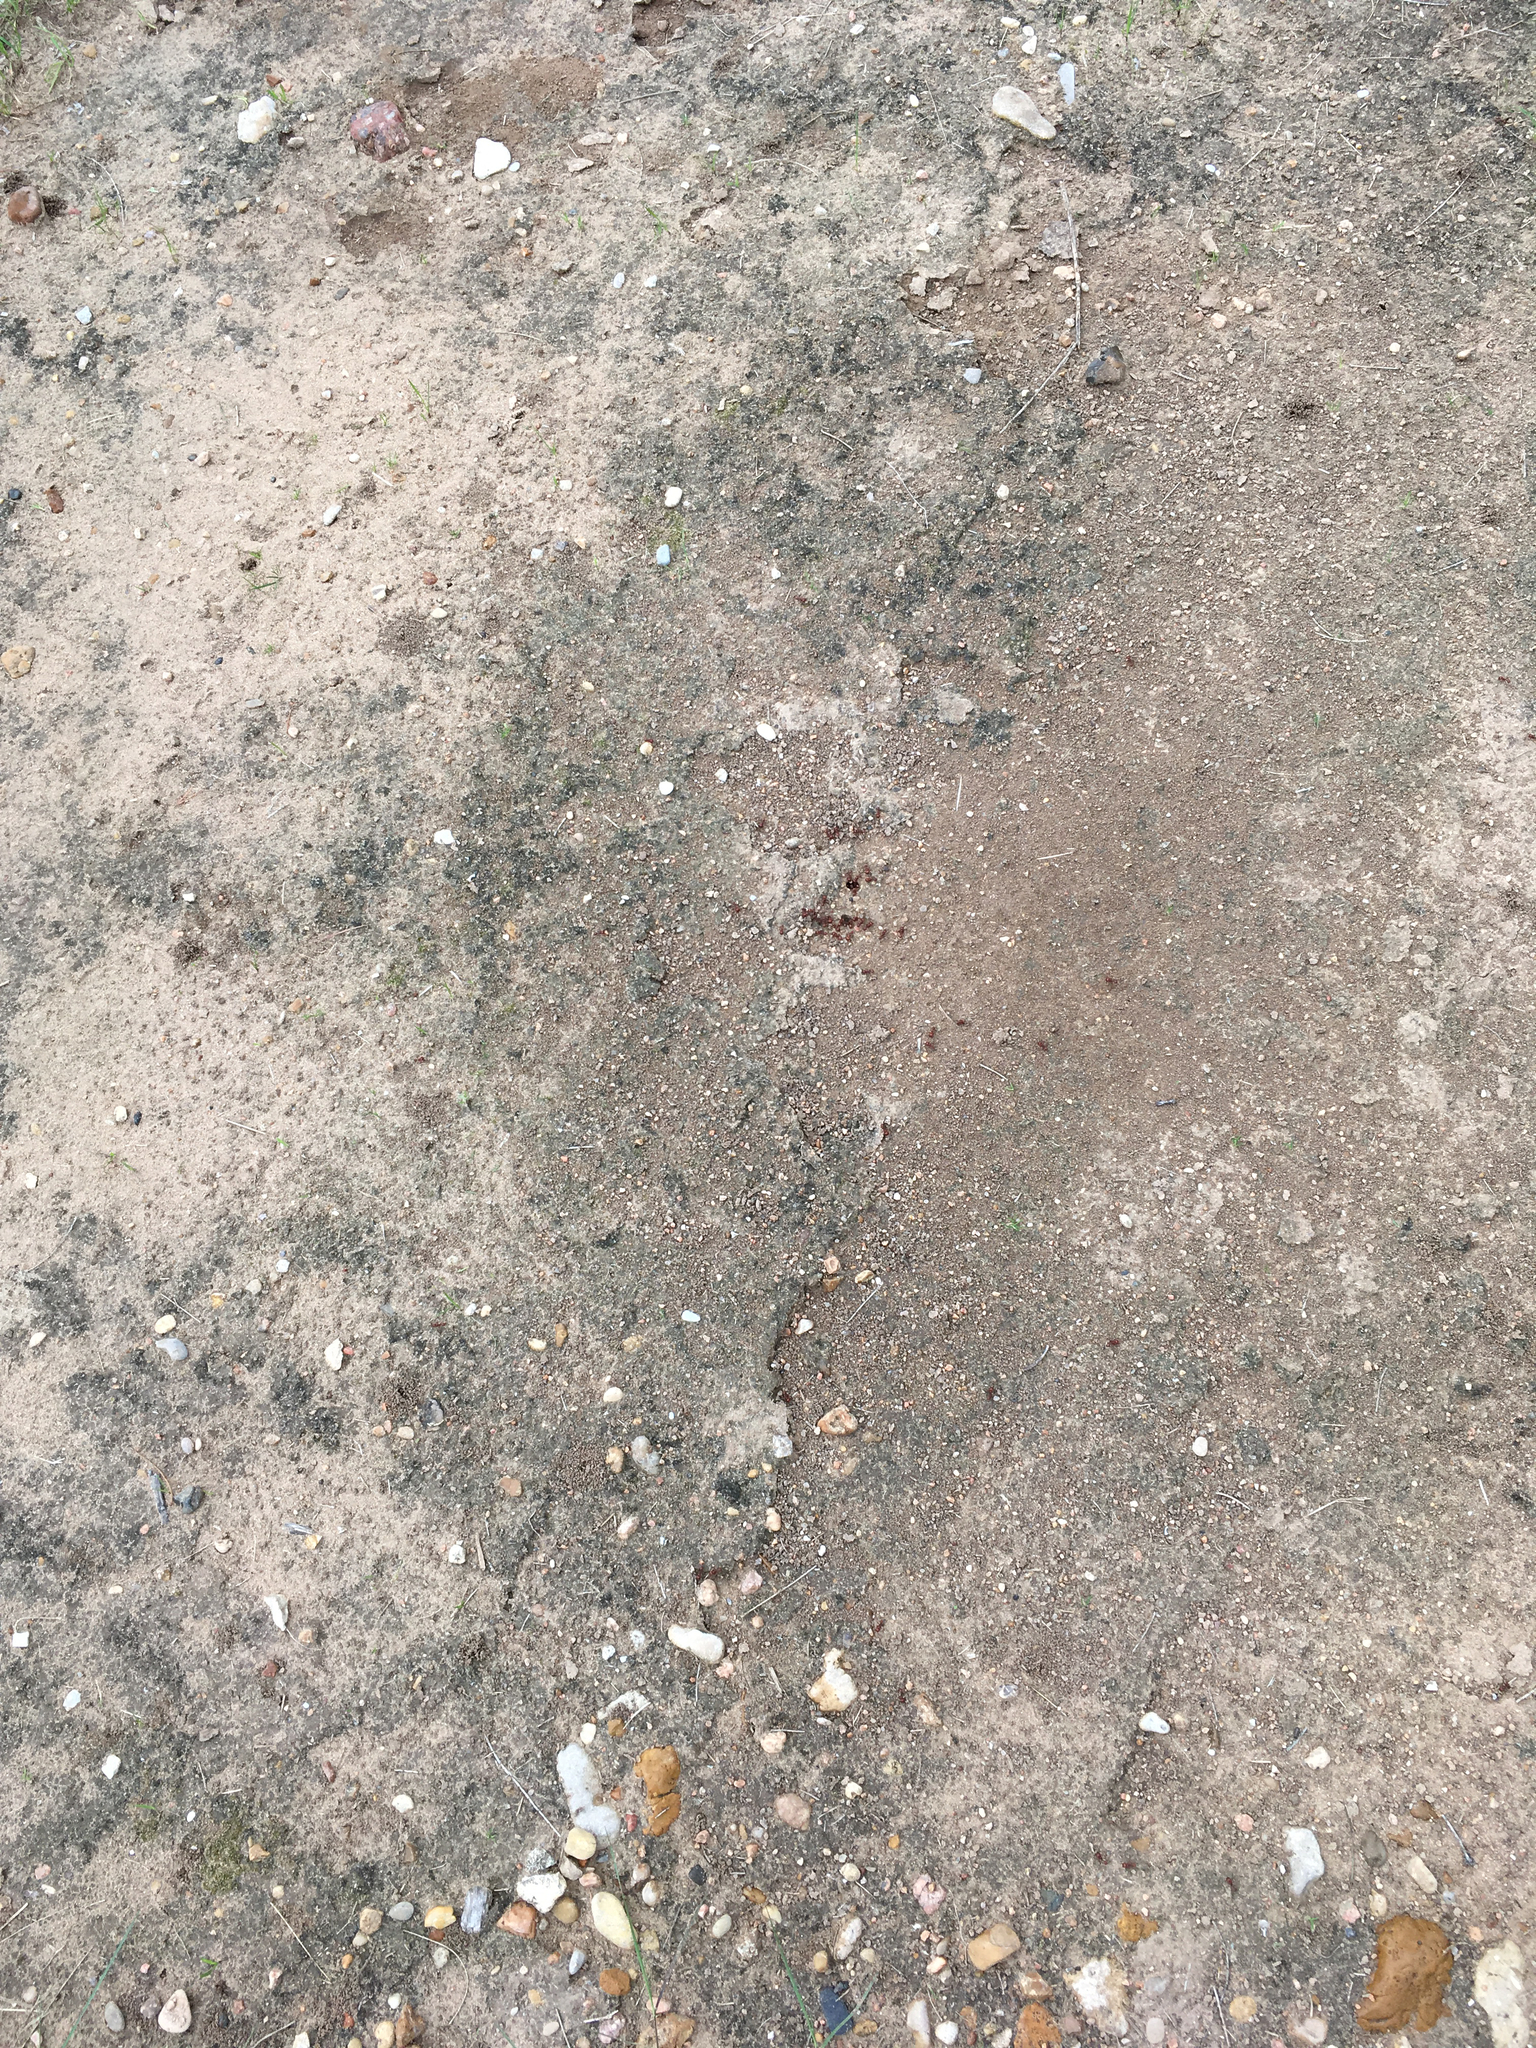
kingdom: Animalia
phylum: Arthropoda
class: Insecta
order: Hymenoptera
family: Formicidae
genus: Pogonomyrmex
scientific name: Pogonomyrmex barbatus
